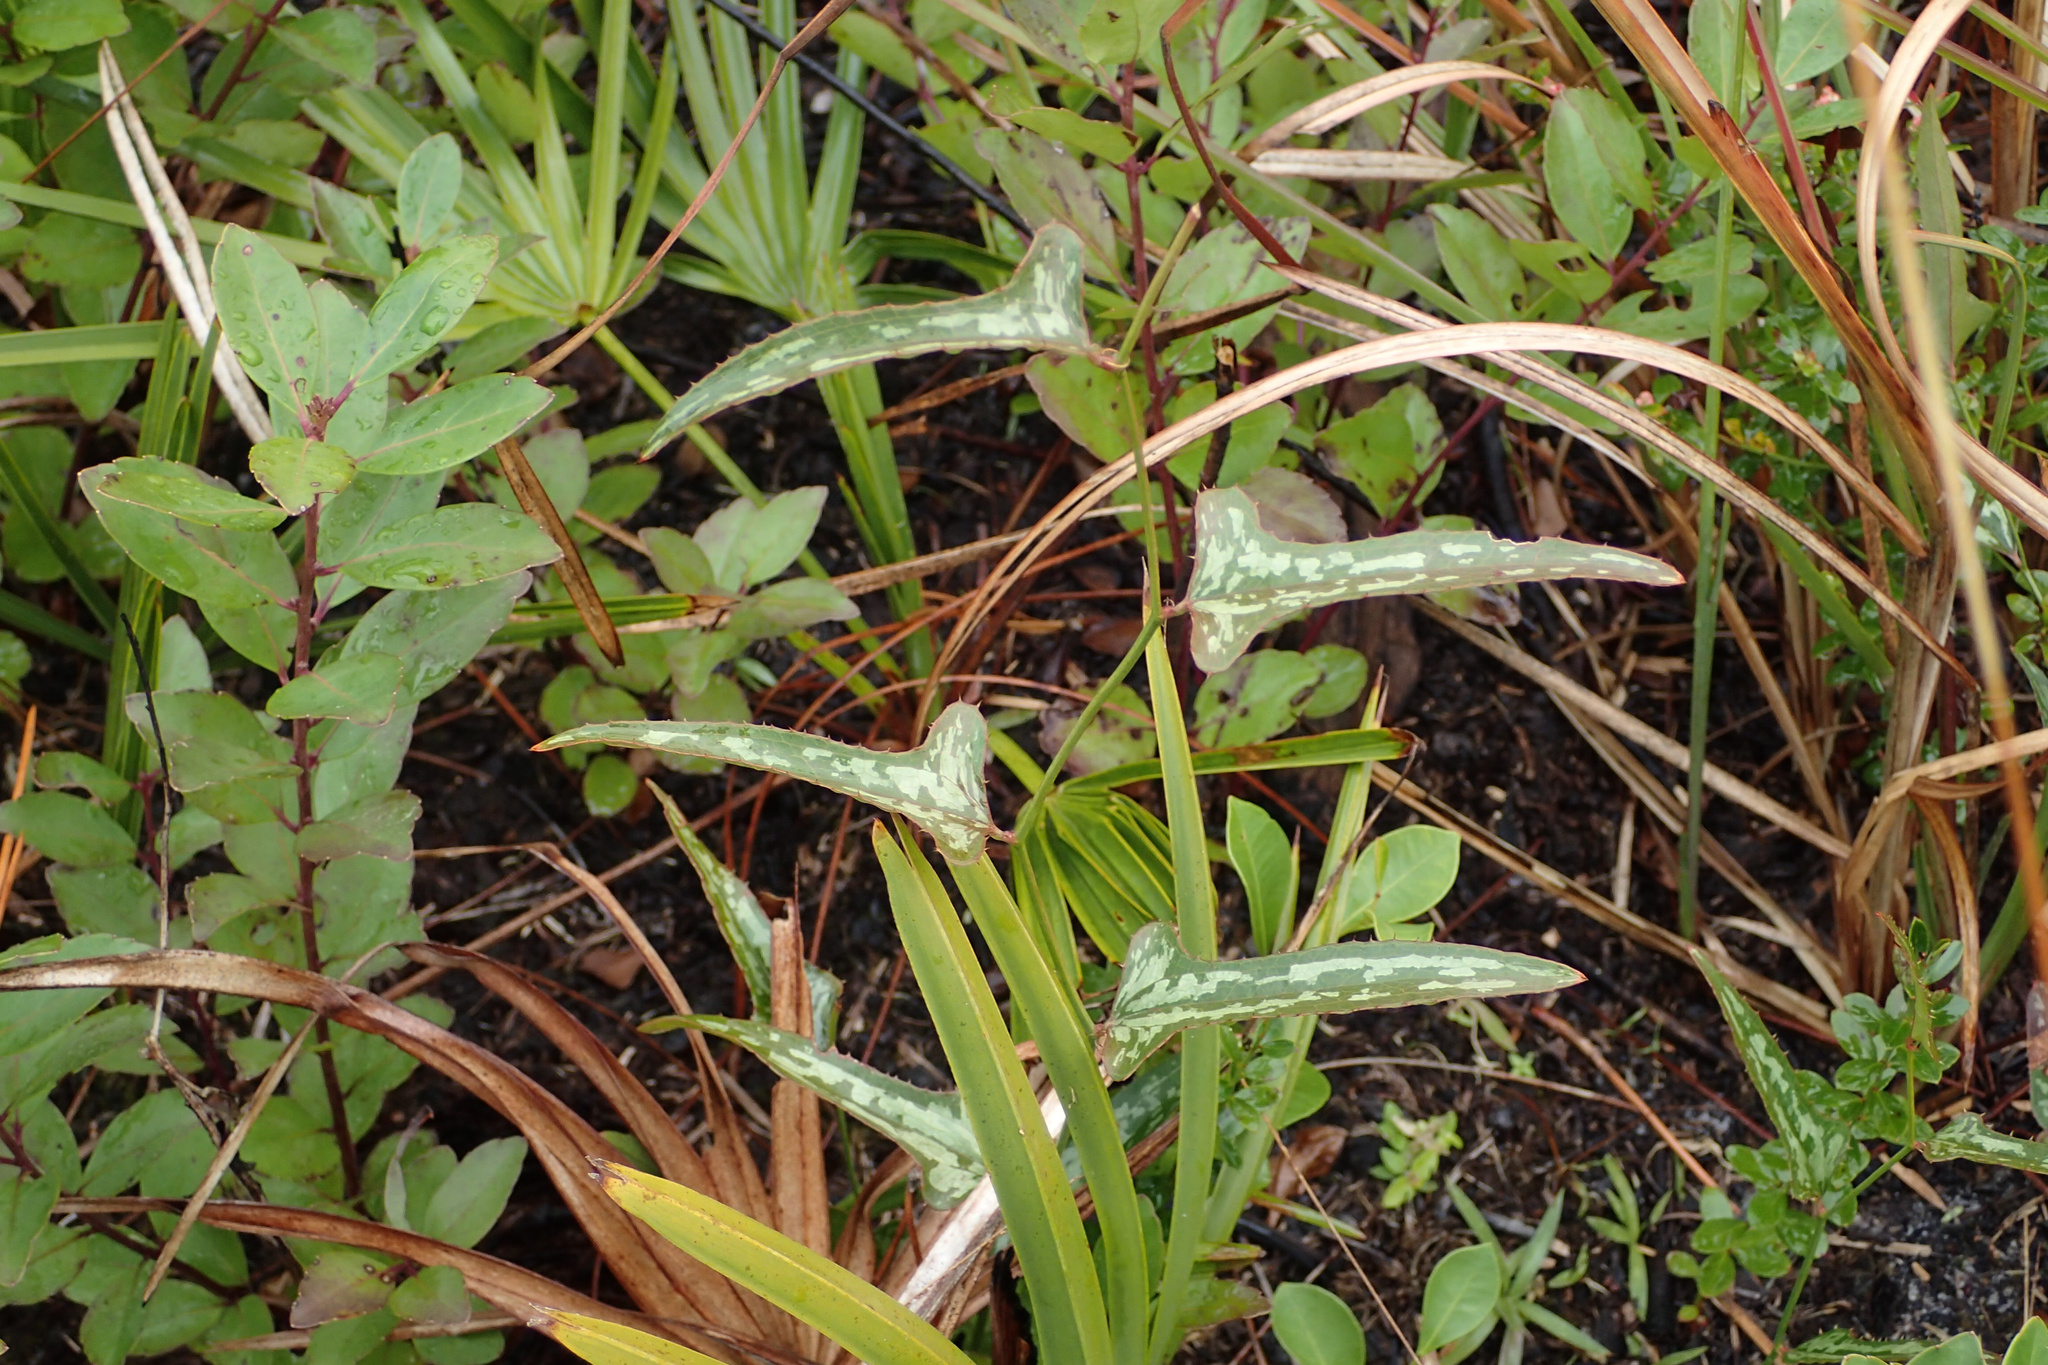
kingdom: Plantae
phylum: Tracheophyta
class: Liliopsida
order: Liliales
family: Smilacaceae
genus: Smilax
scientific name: Smilax bona-nox
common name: Catbrier
